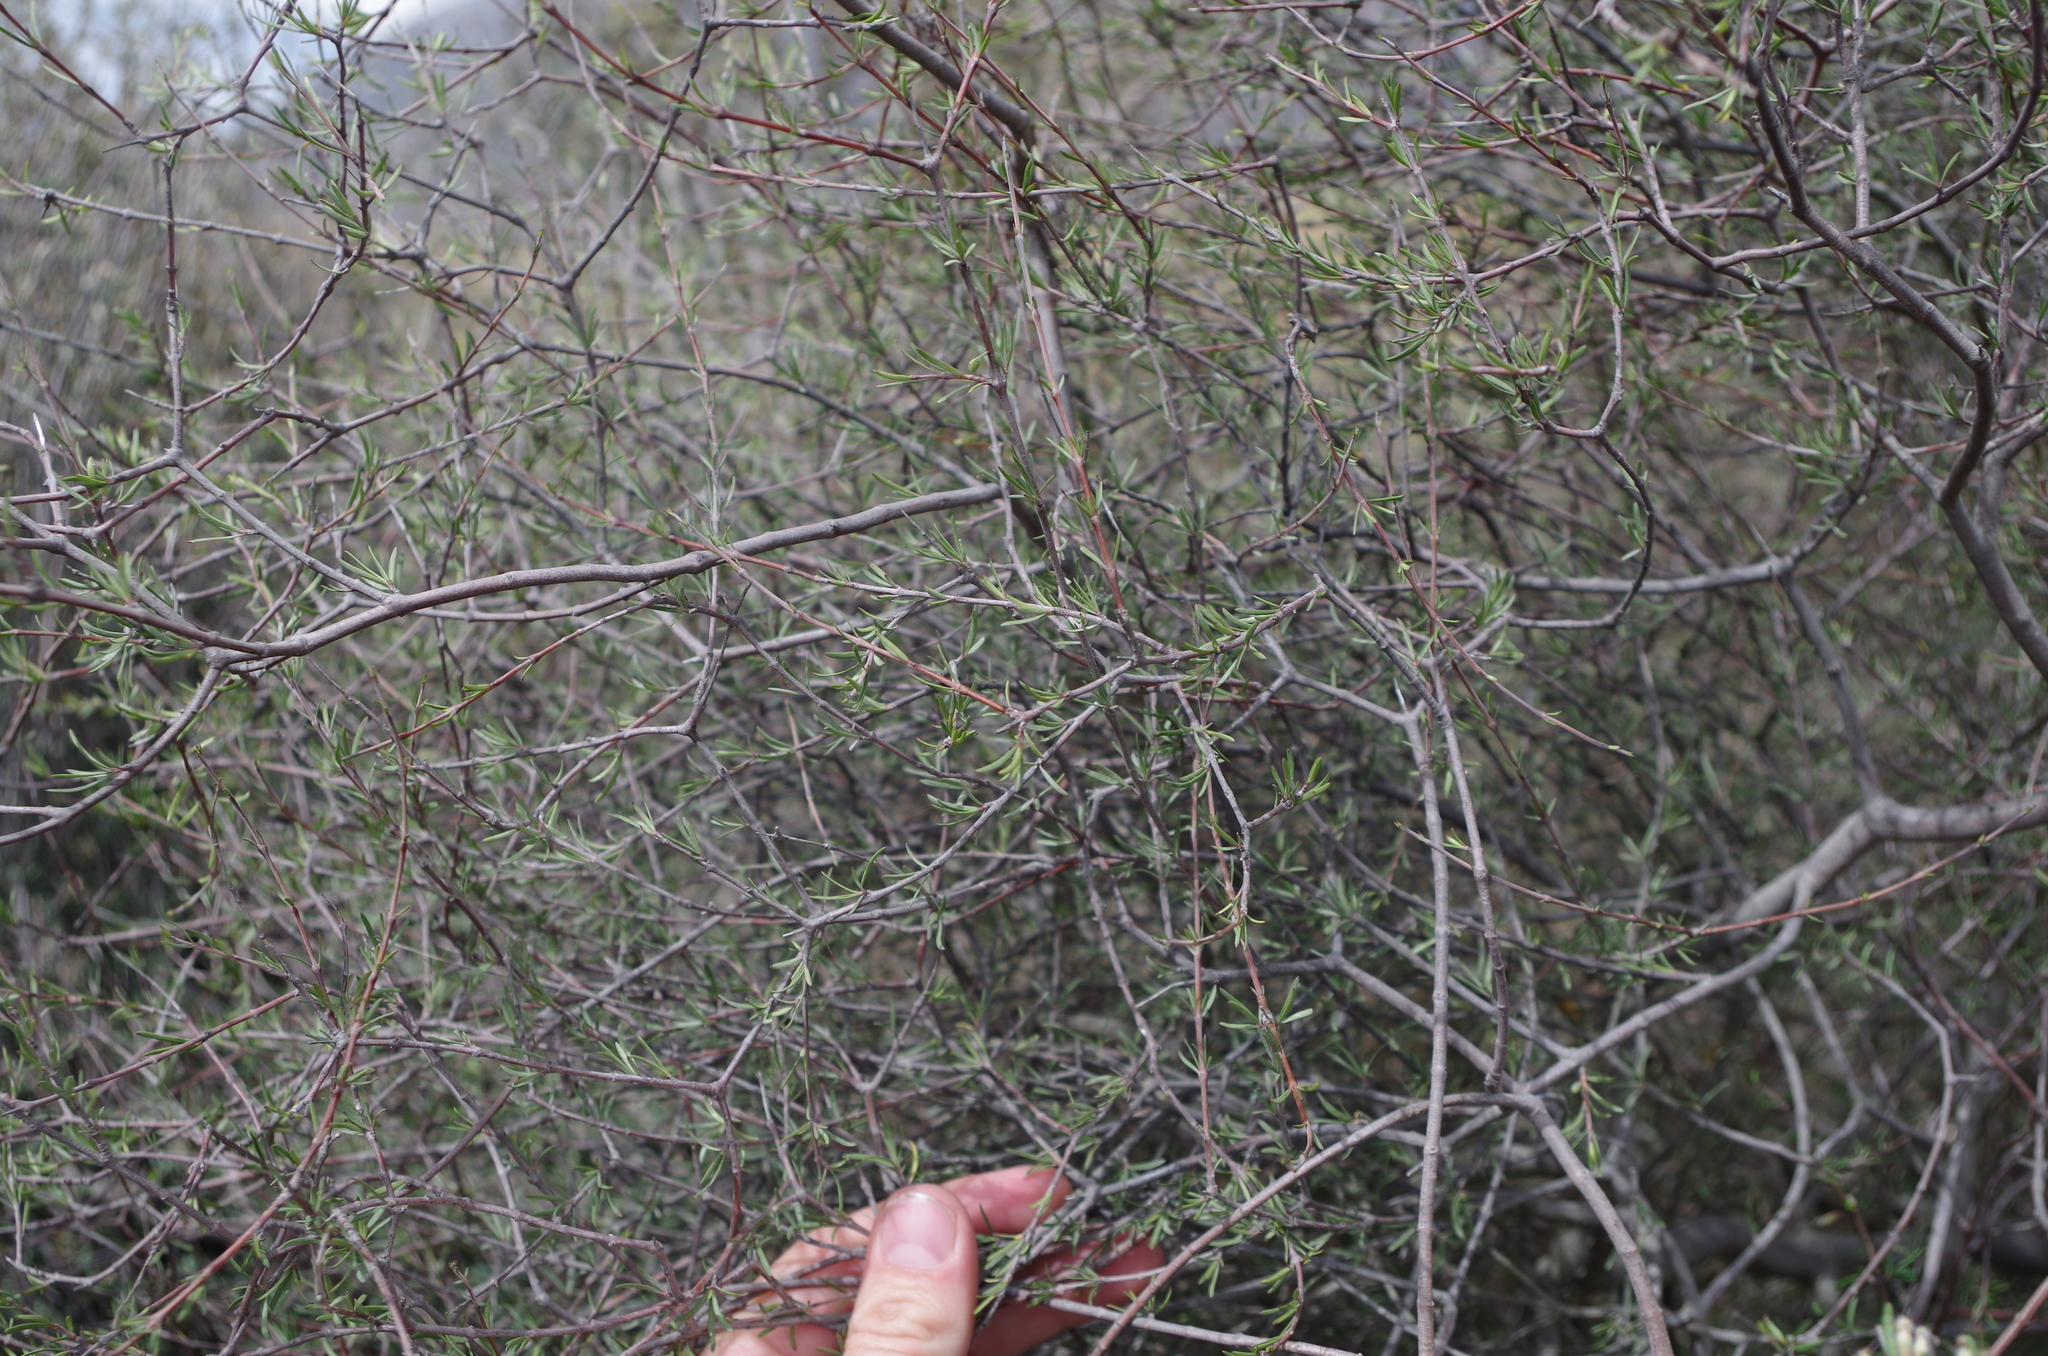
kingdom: Plantae
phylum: Tracheophyta
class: Magnoliopsida
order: Gentianales
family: Rubiaceae
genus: Coprosma
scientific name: Coprosma intertexta
